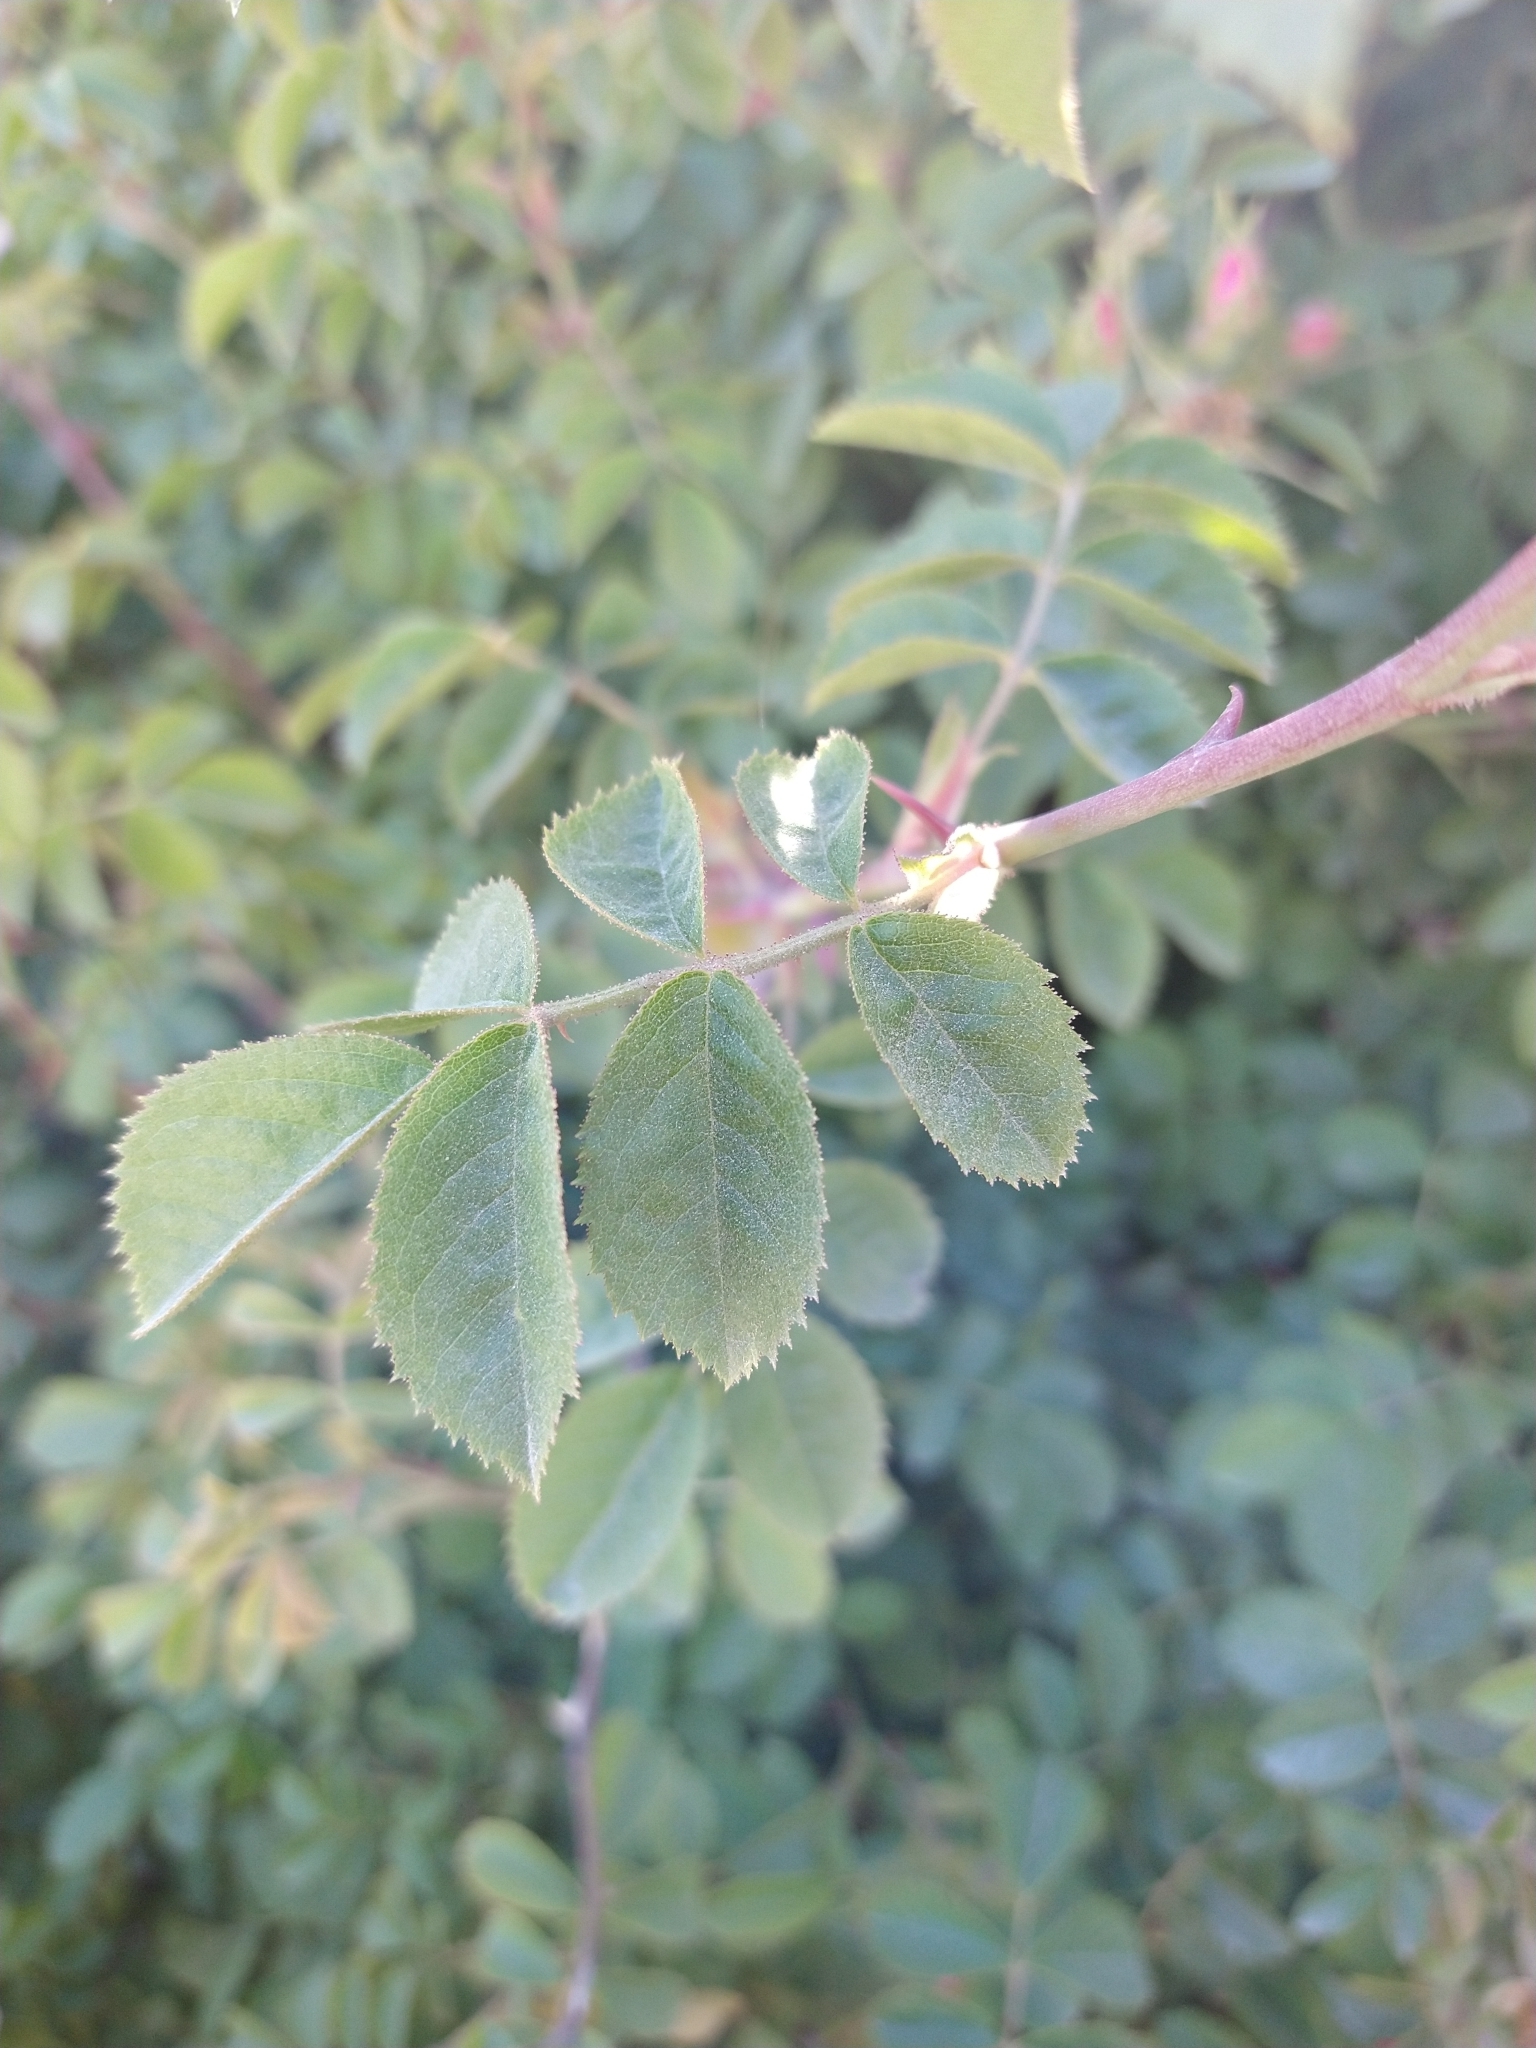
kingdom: Plantae
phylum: Tracheophyta
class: Magnoliopsida
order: Rosales
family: Rosaceae
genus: Rosa
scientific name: Rosa rubiginosa
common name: Sweet-briar
